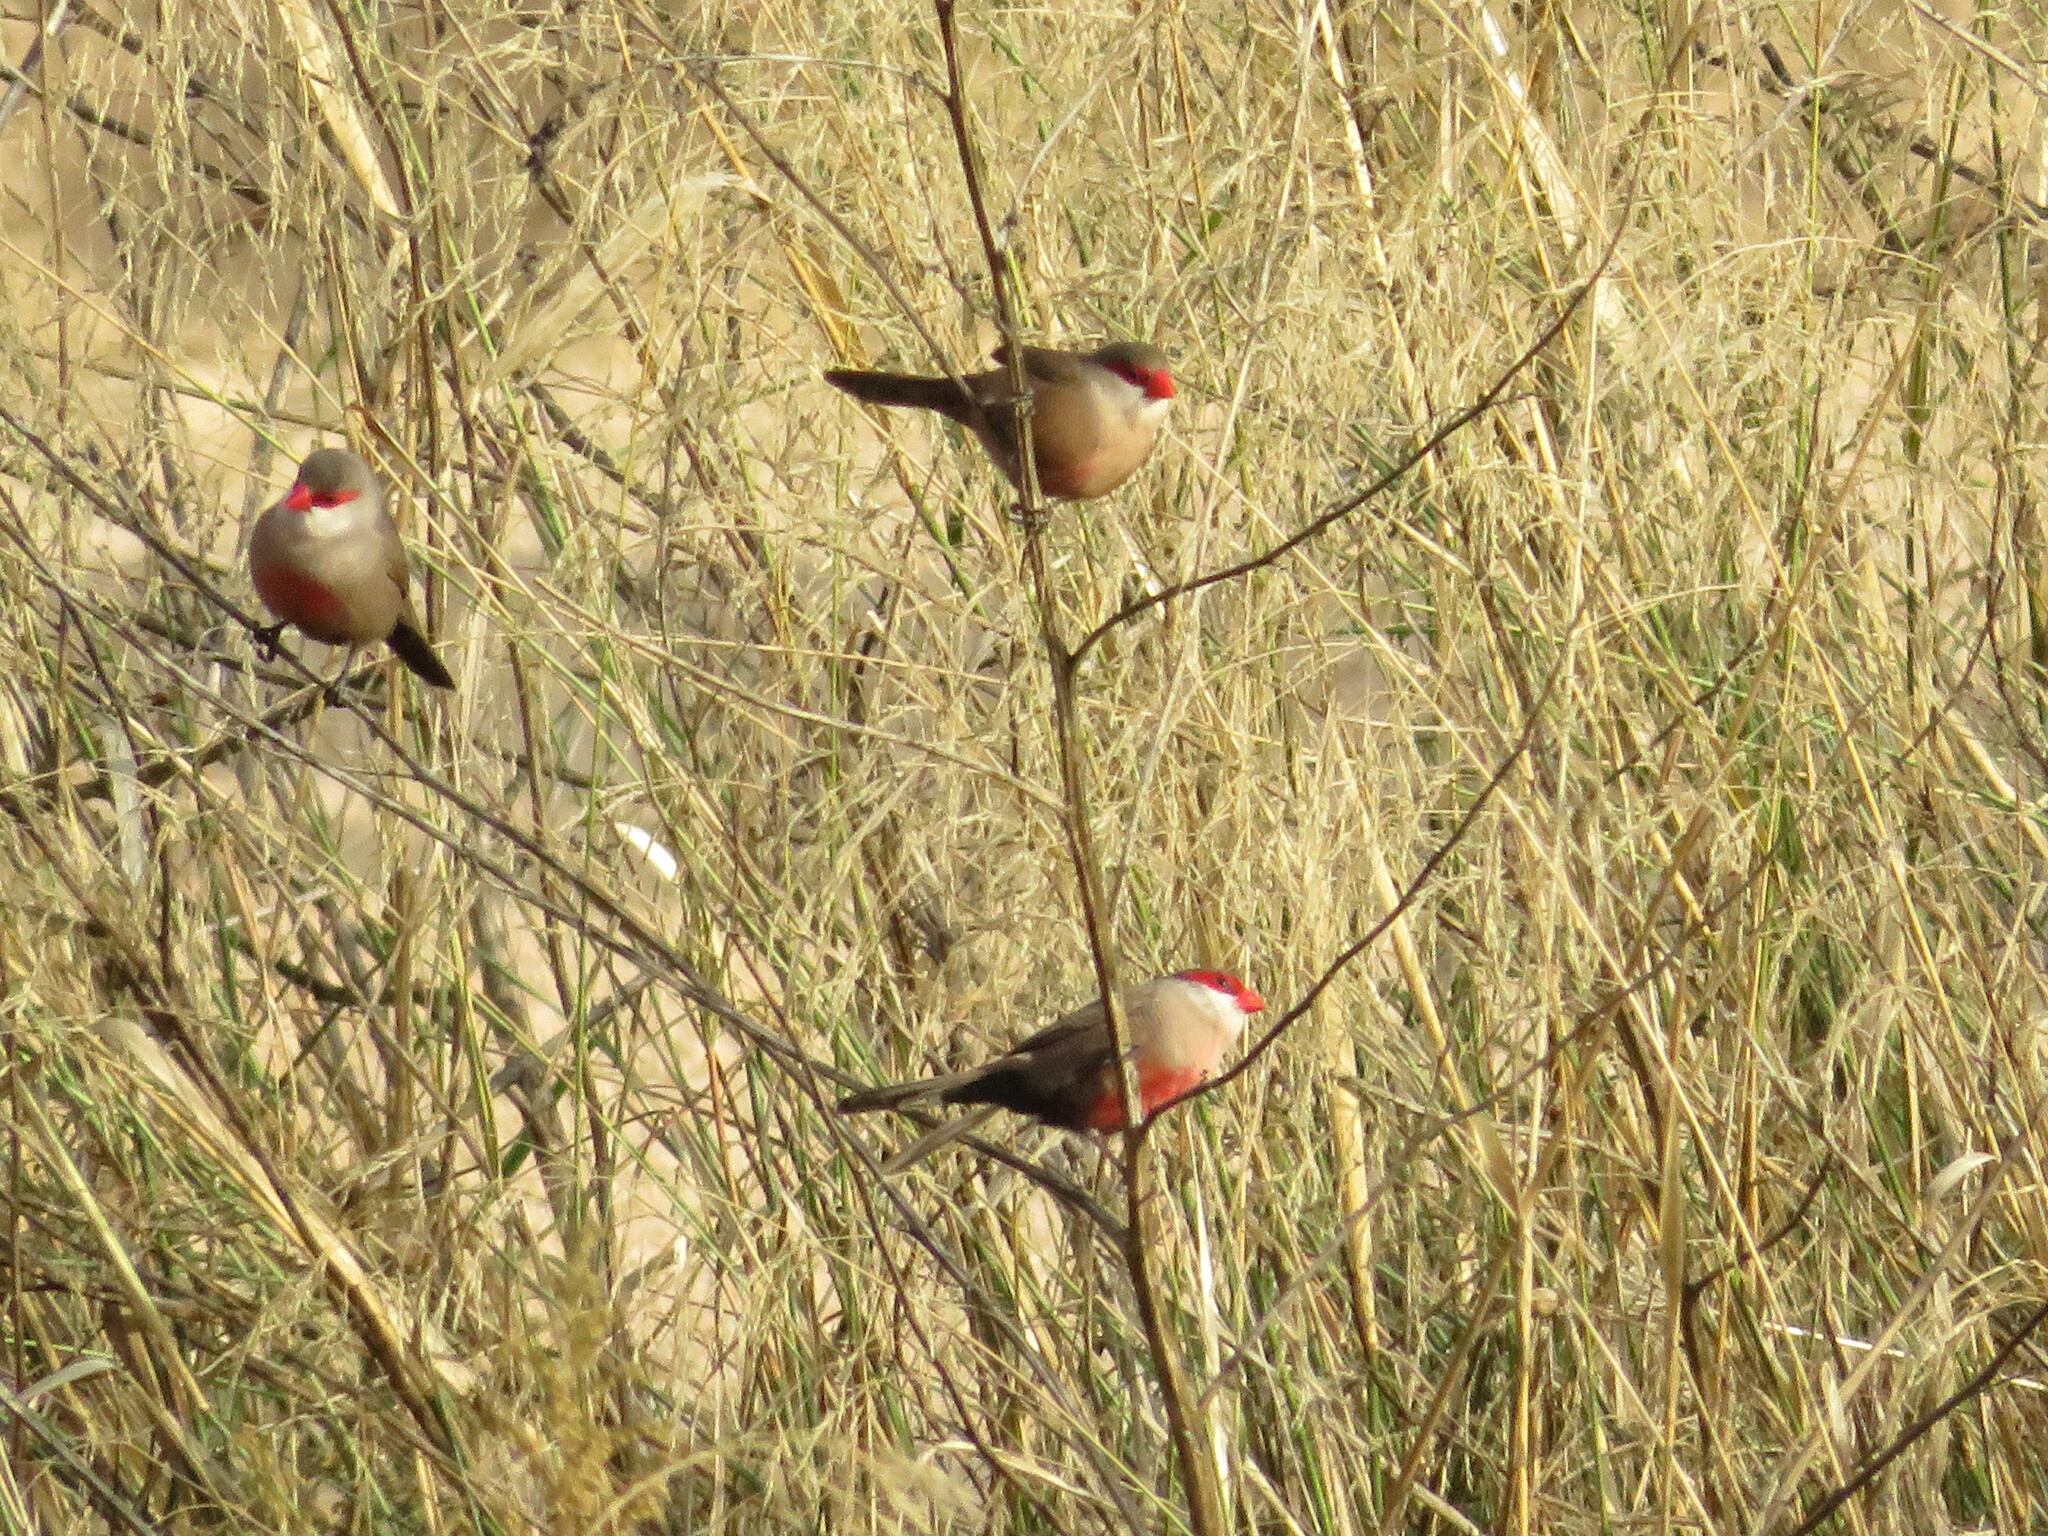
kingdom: Animalia
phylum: Chordata
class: Aves
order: Passeriformes
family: Estrildidae
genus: Estrilda
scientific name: Estrilda astrild
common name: Common waxbill
